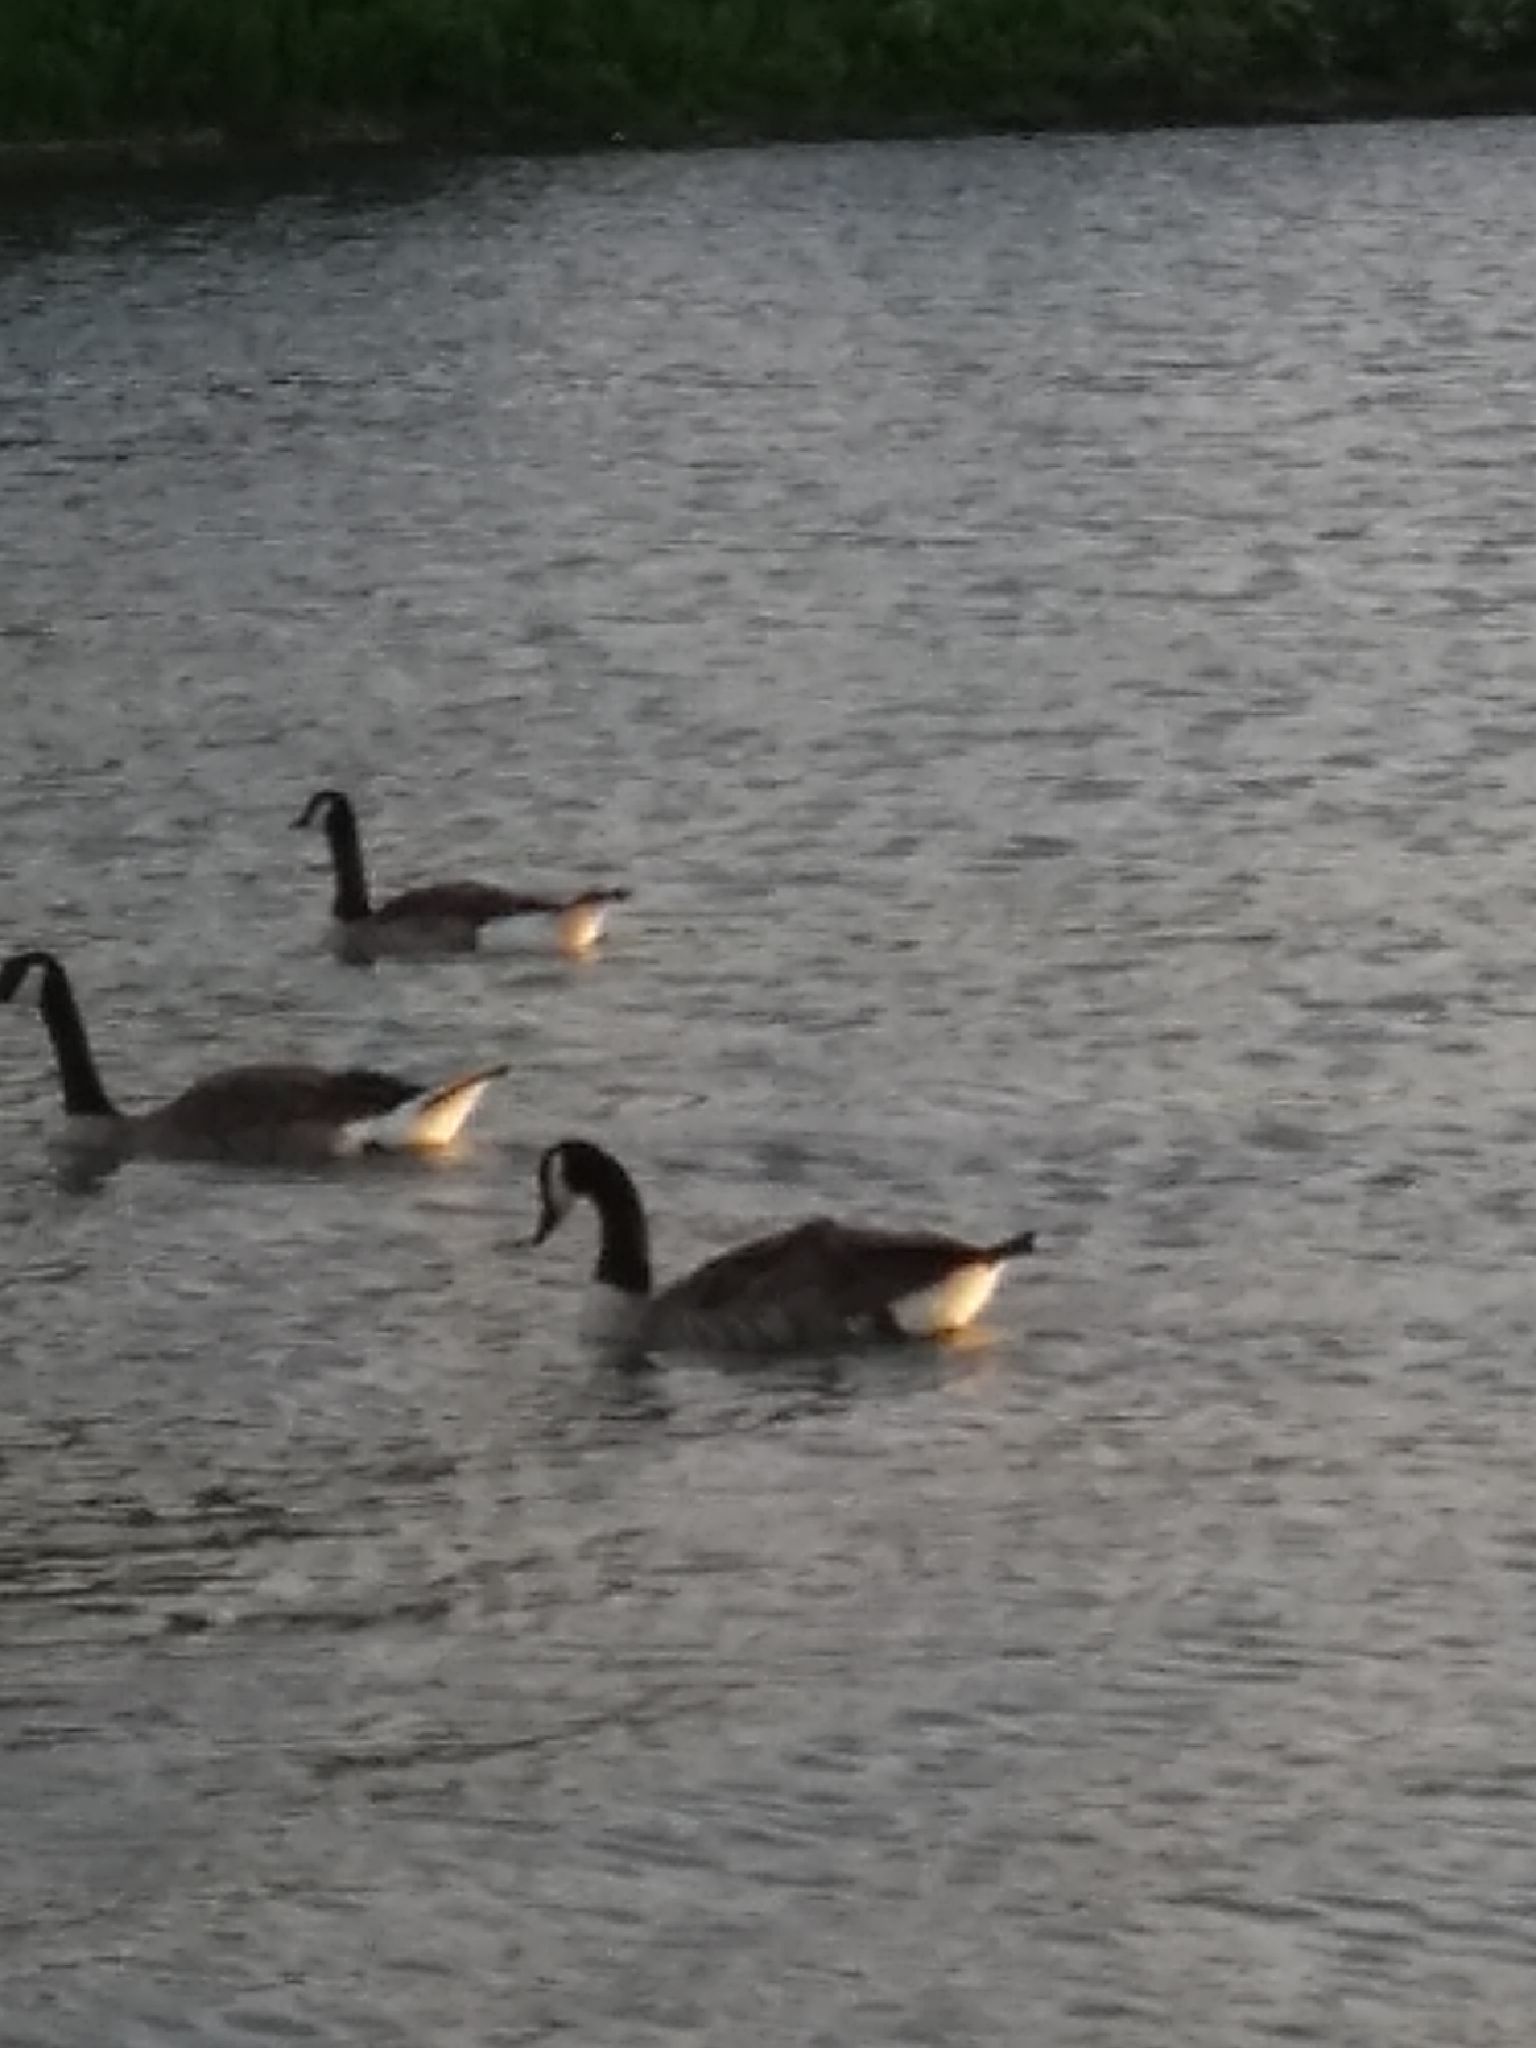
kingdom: Animalia
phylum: Chordata
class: Aves
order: Anseriformes
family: Anatidae
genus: Branta
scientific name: Branta canadensis
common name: Canada goose
